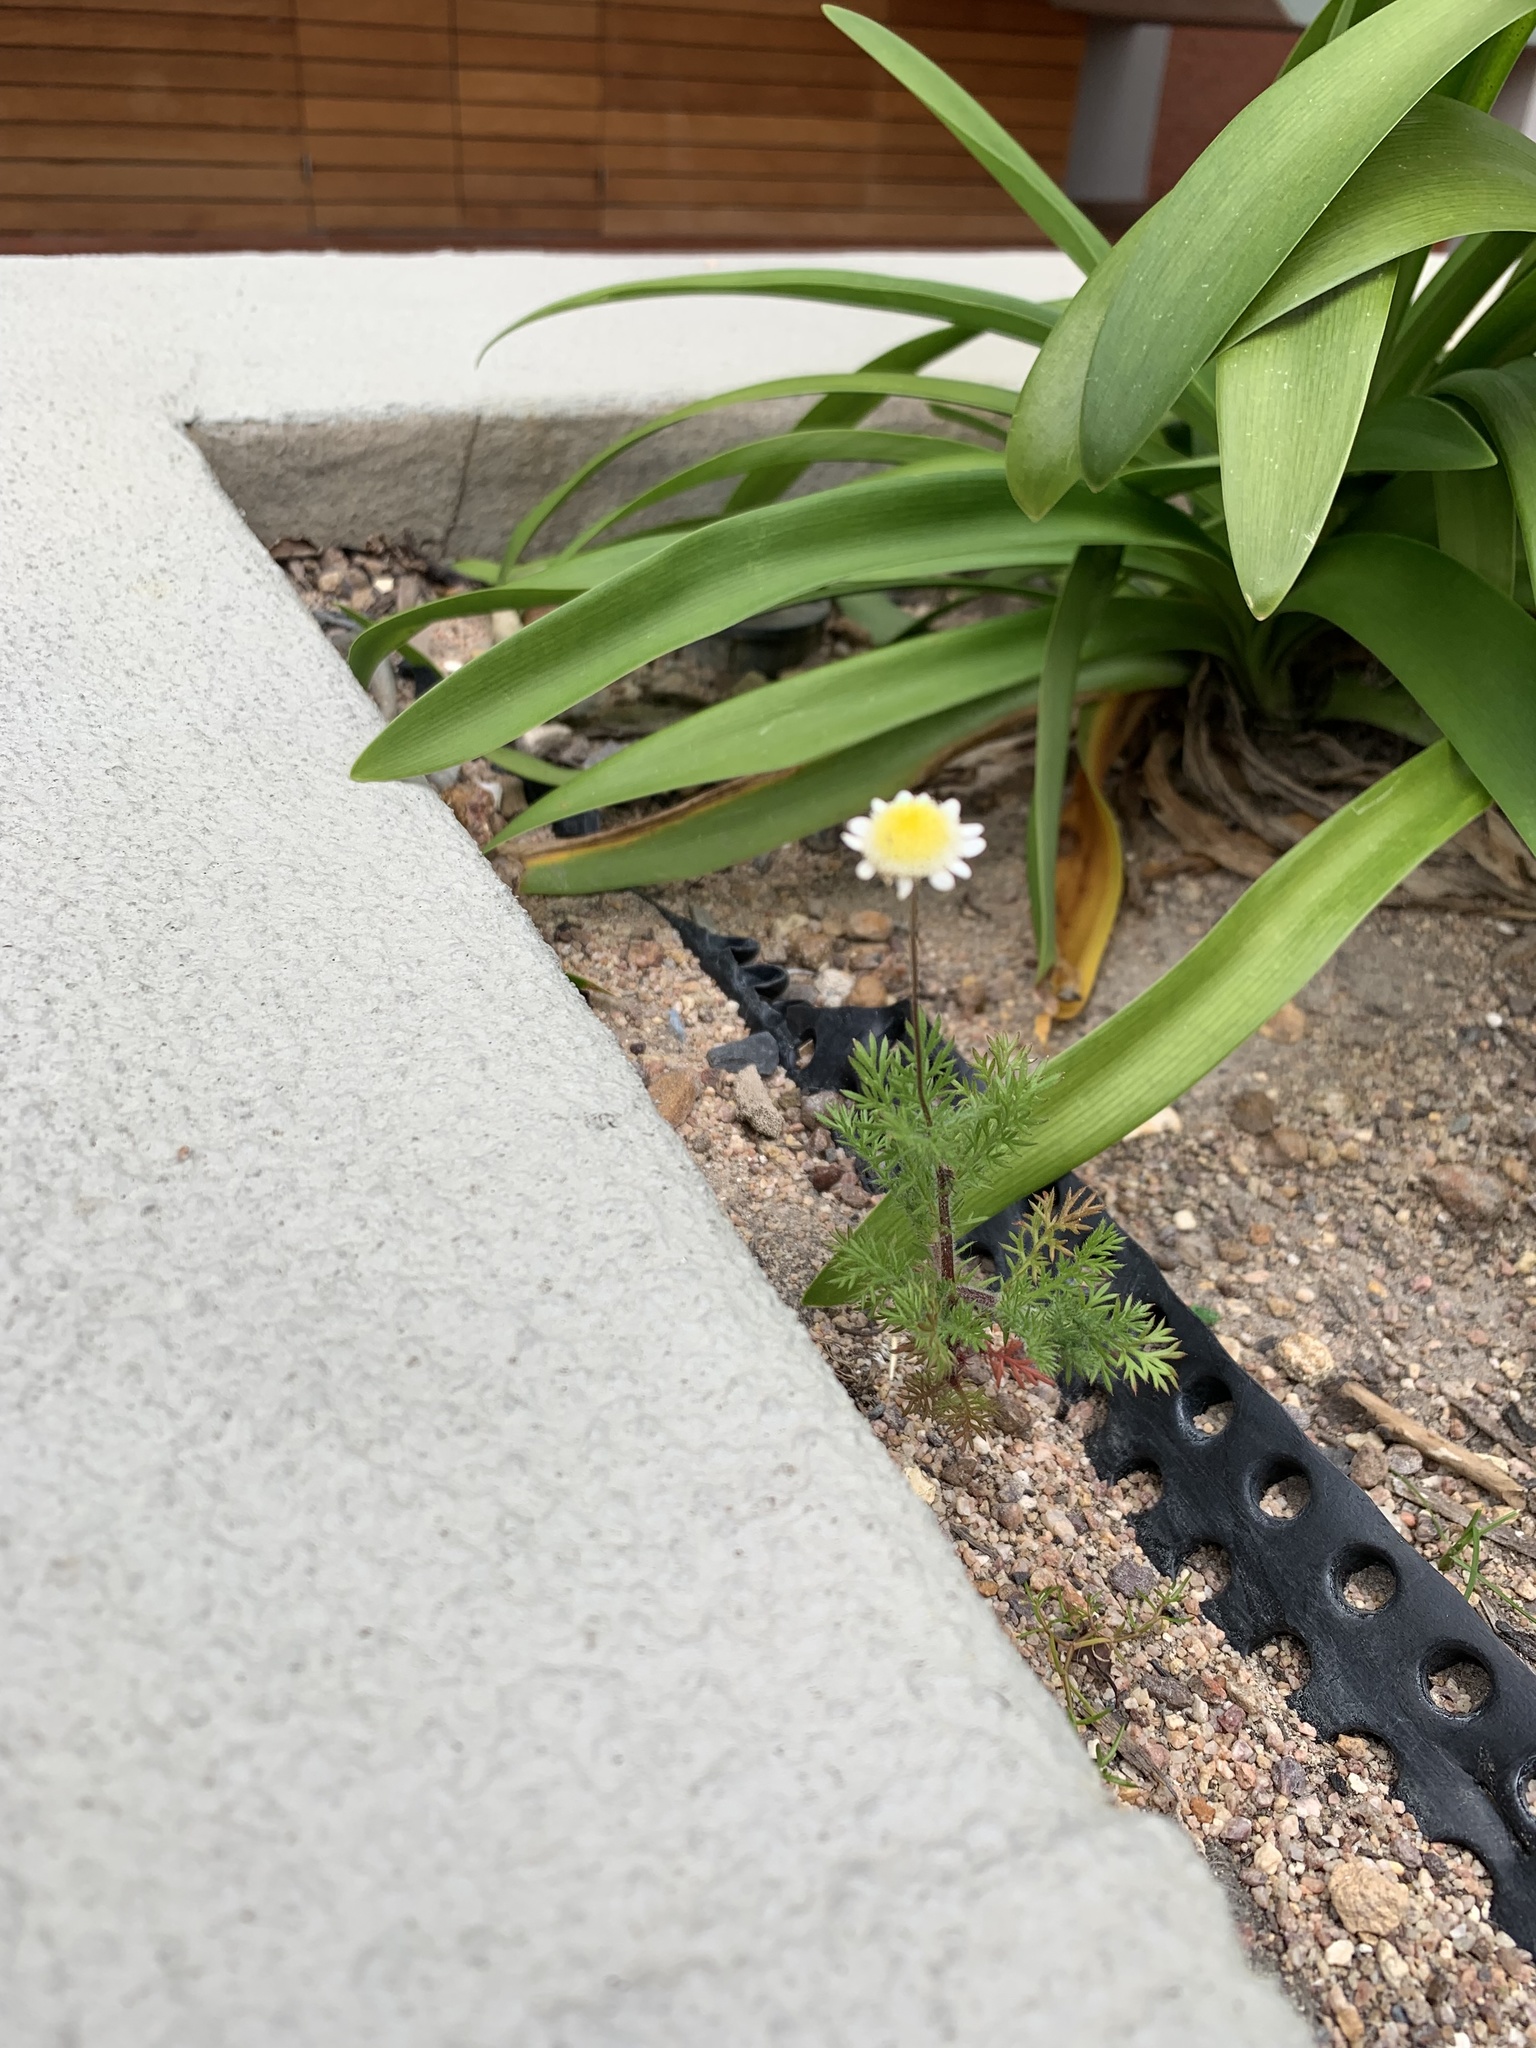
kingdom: Plantae
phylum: Tracheophyta
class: Magnoliopsida
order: Asterales
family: Asteraceae
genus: Cotula
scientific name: Cotula turbinata
